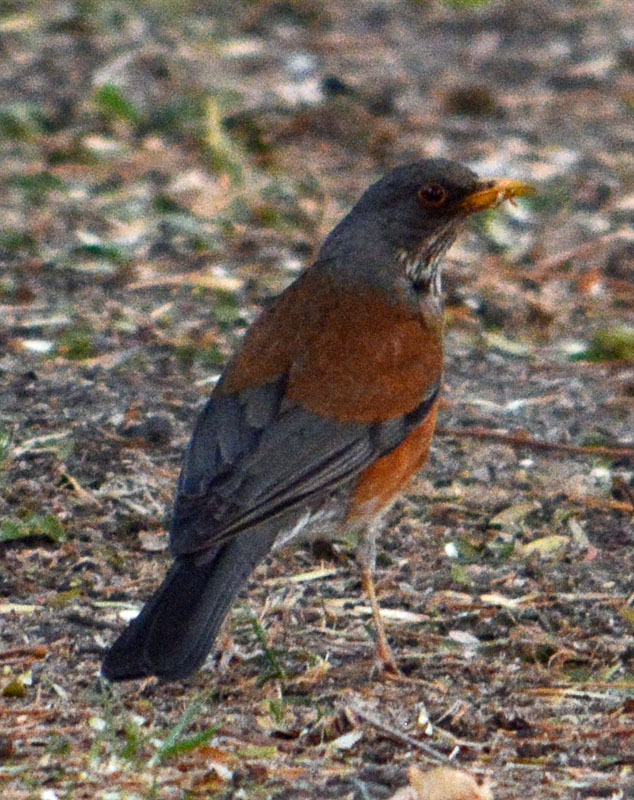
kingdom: Animalia
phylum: Chordata
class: Aves
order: Passeriformes
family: Turdidae
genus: Turdus
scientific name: Turdus rufopalliatus
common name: Rufous-backed robin
